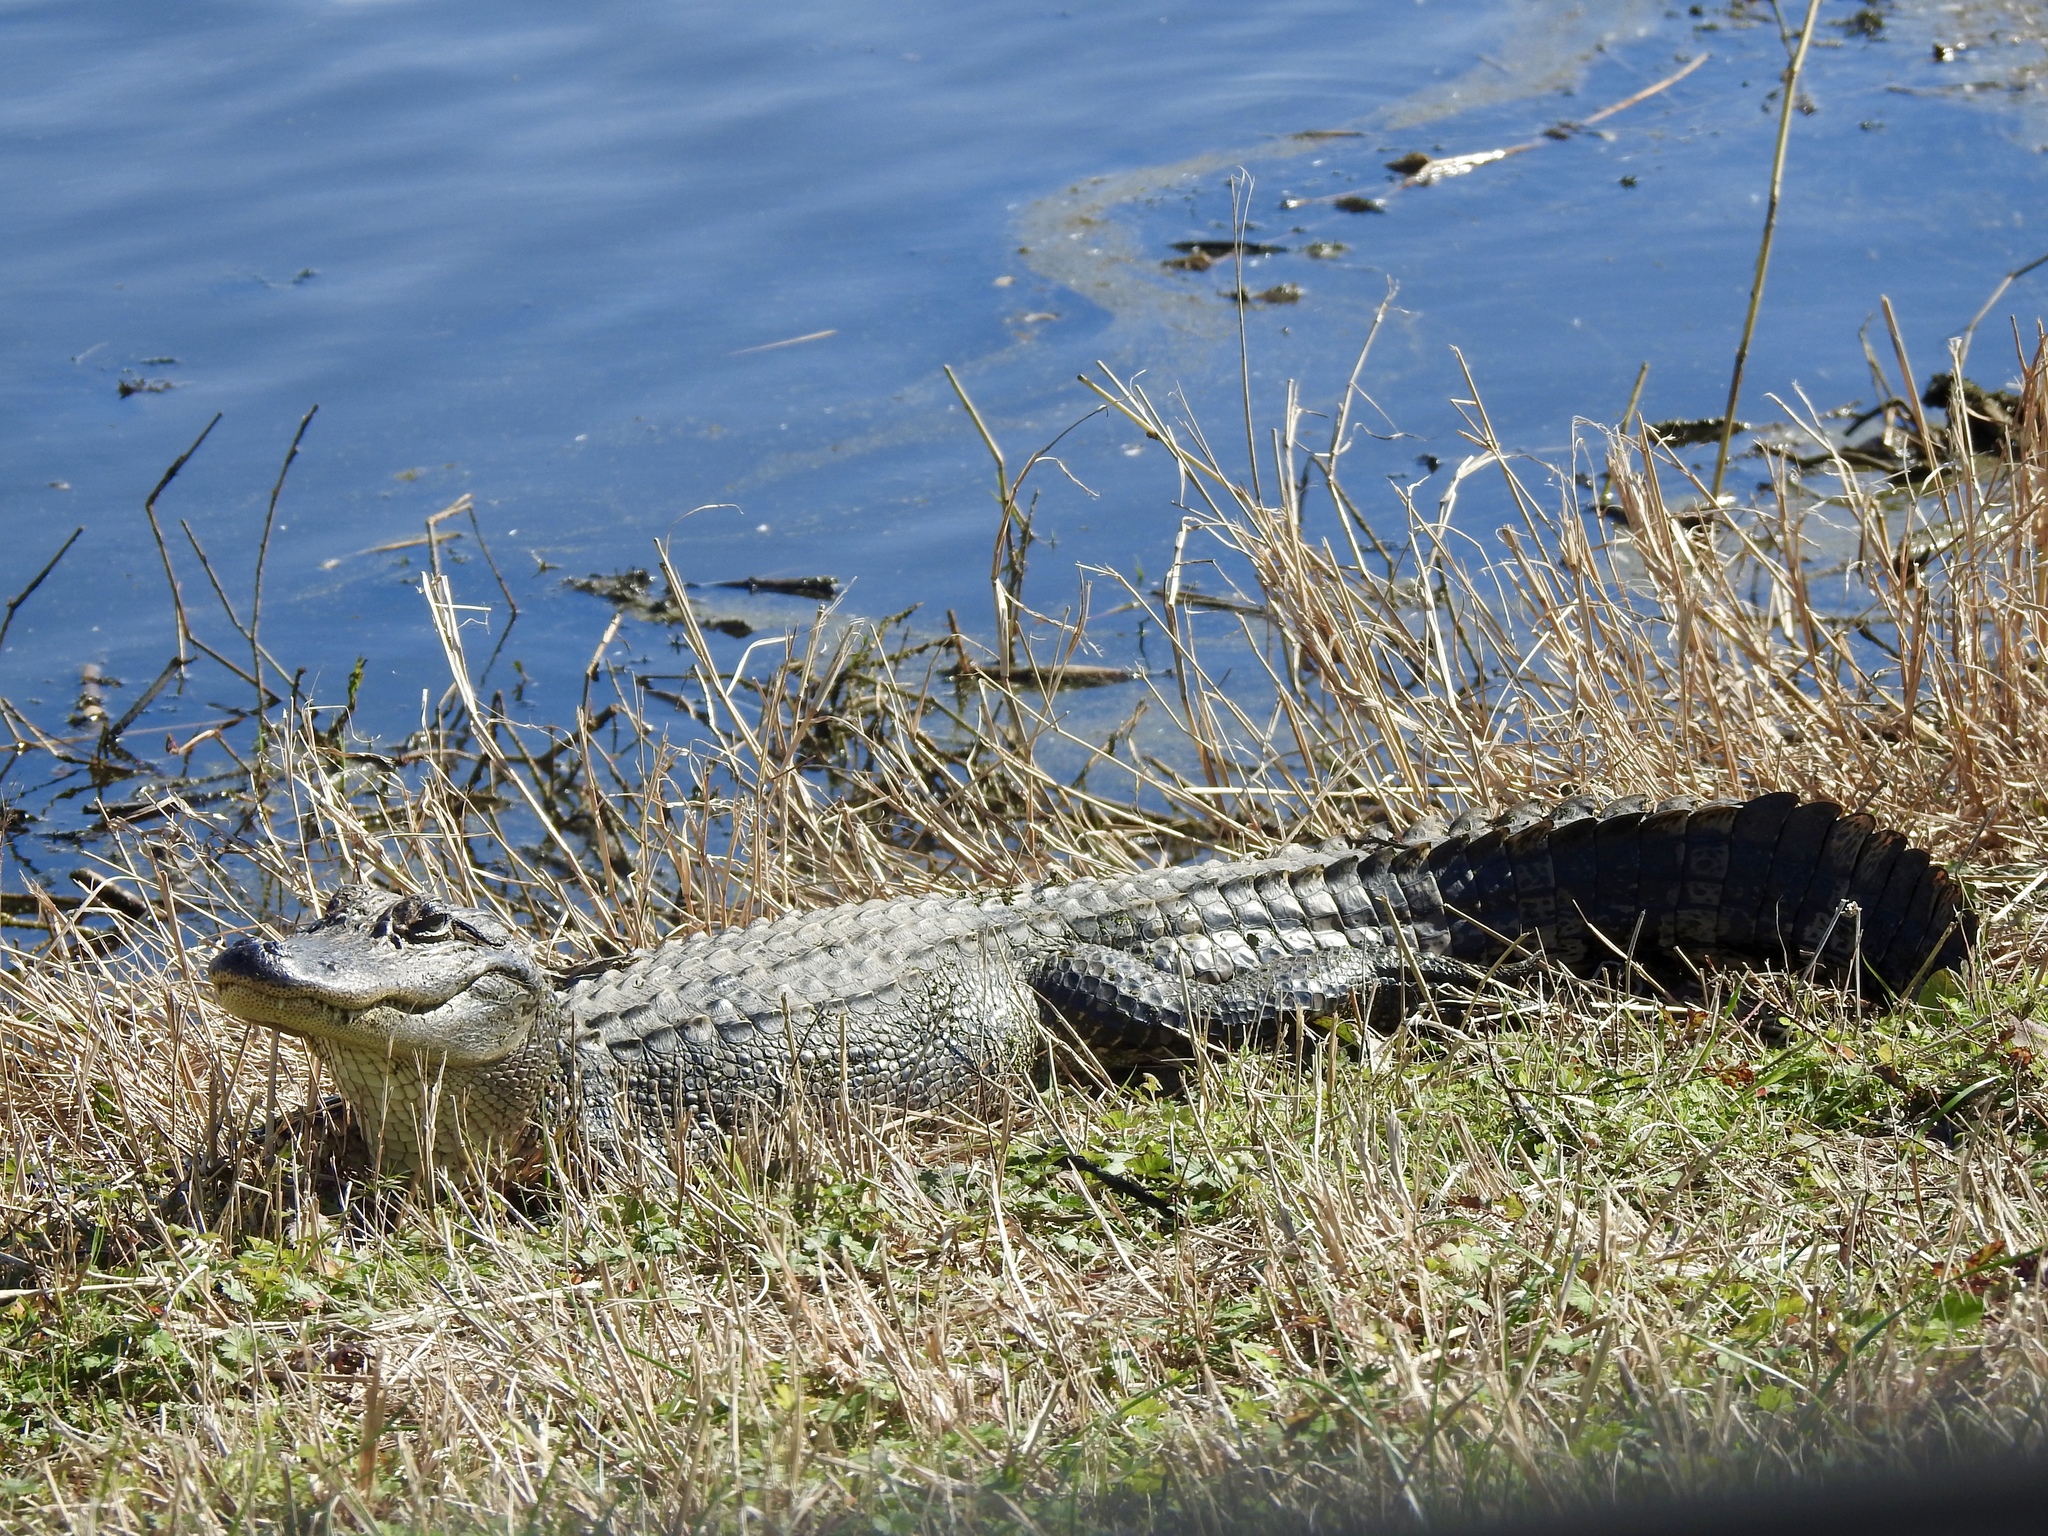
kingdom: Animalia
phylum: Chordata
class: Crocodylia
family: Alligatoridae
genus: Alligator
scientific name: Alligator mississippiensis
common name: American alligator
